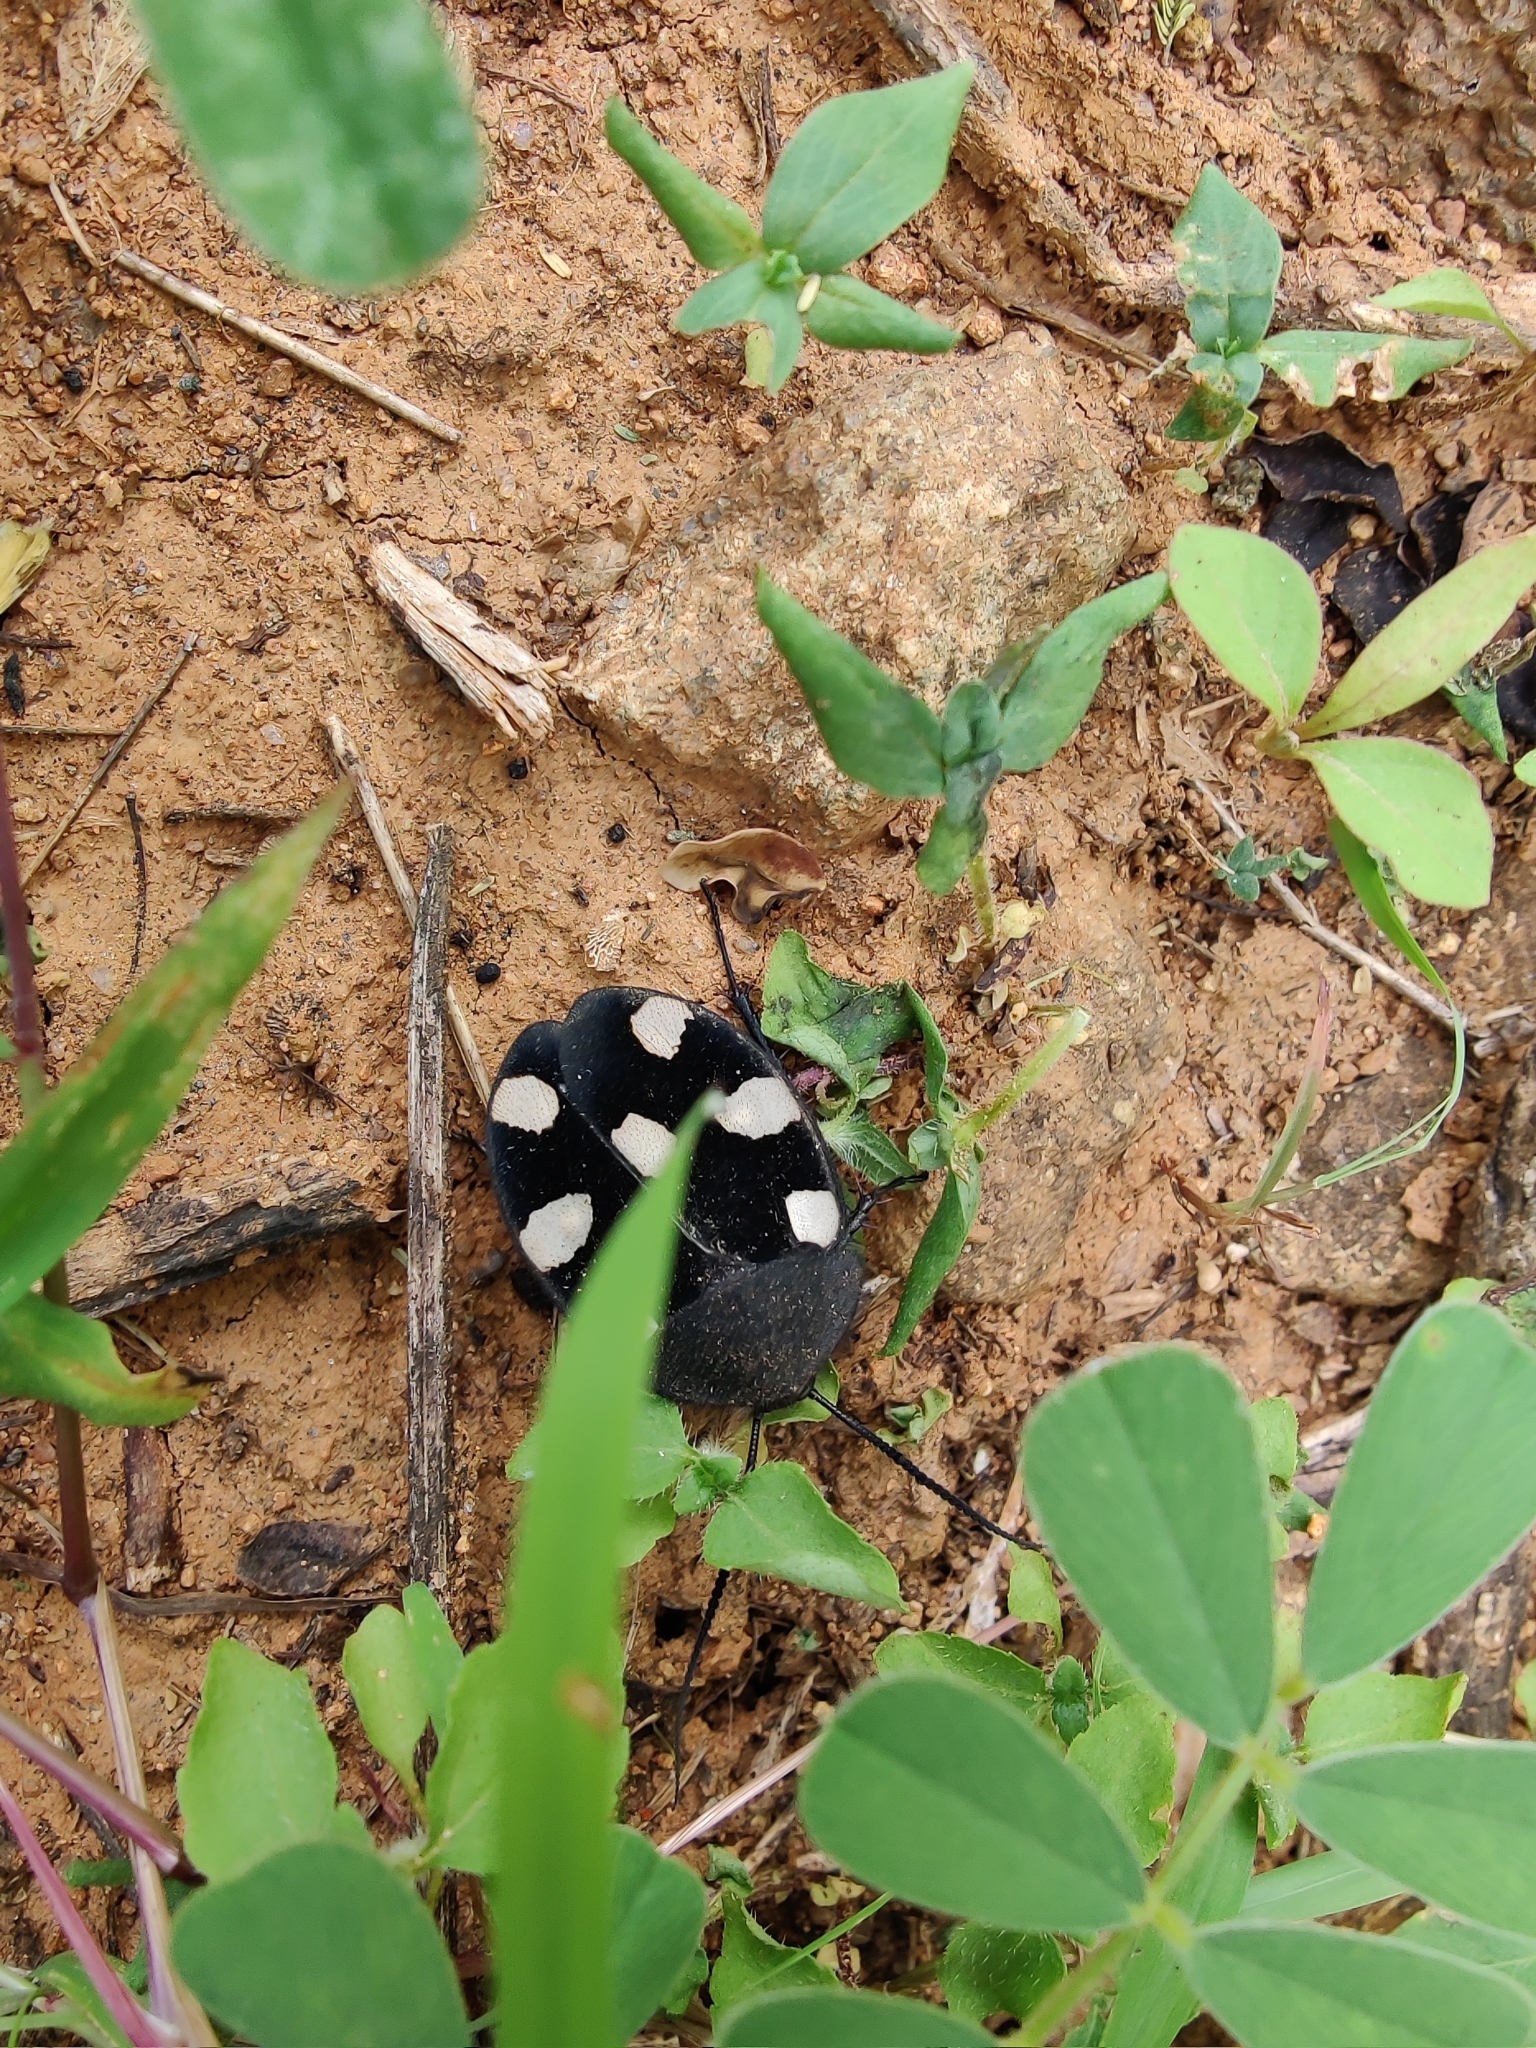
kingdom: Animalia
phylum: Arthropoda
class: Insecta
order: Blattodea
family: Corydiidae
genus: Therea
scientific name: Therea petiveriana
